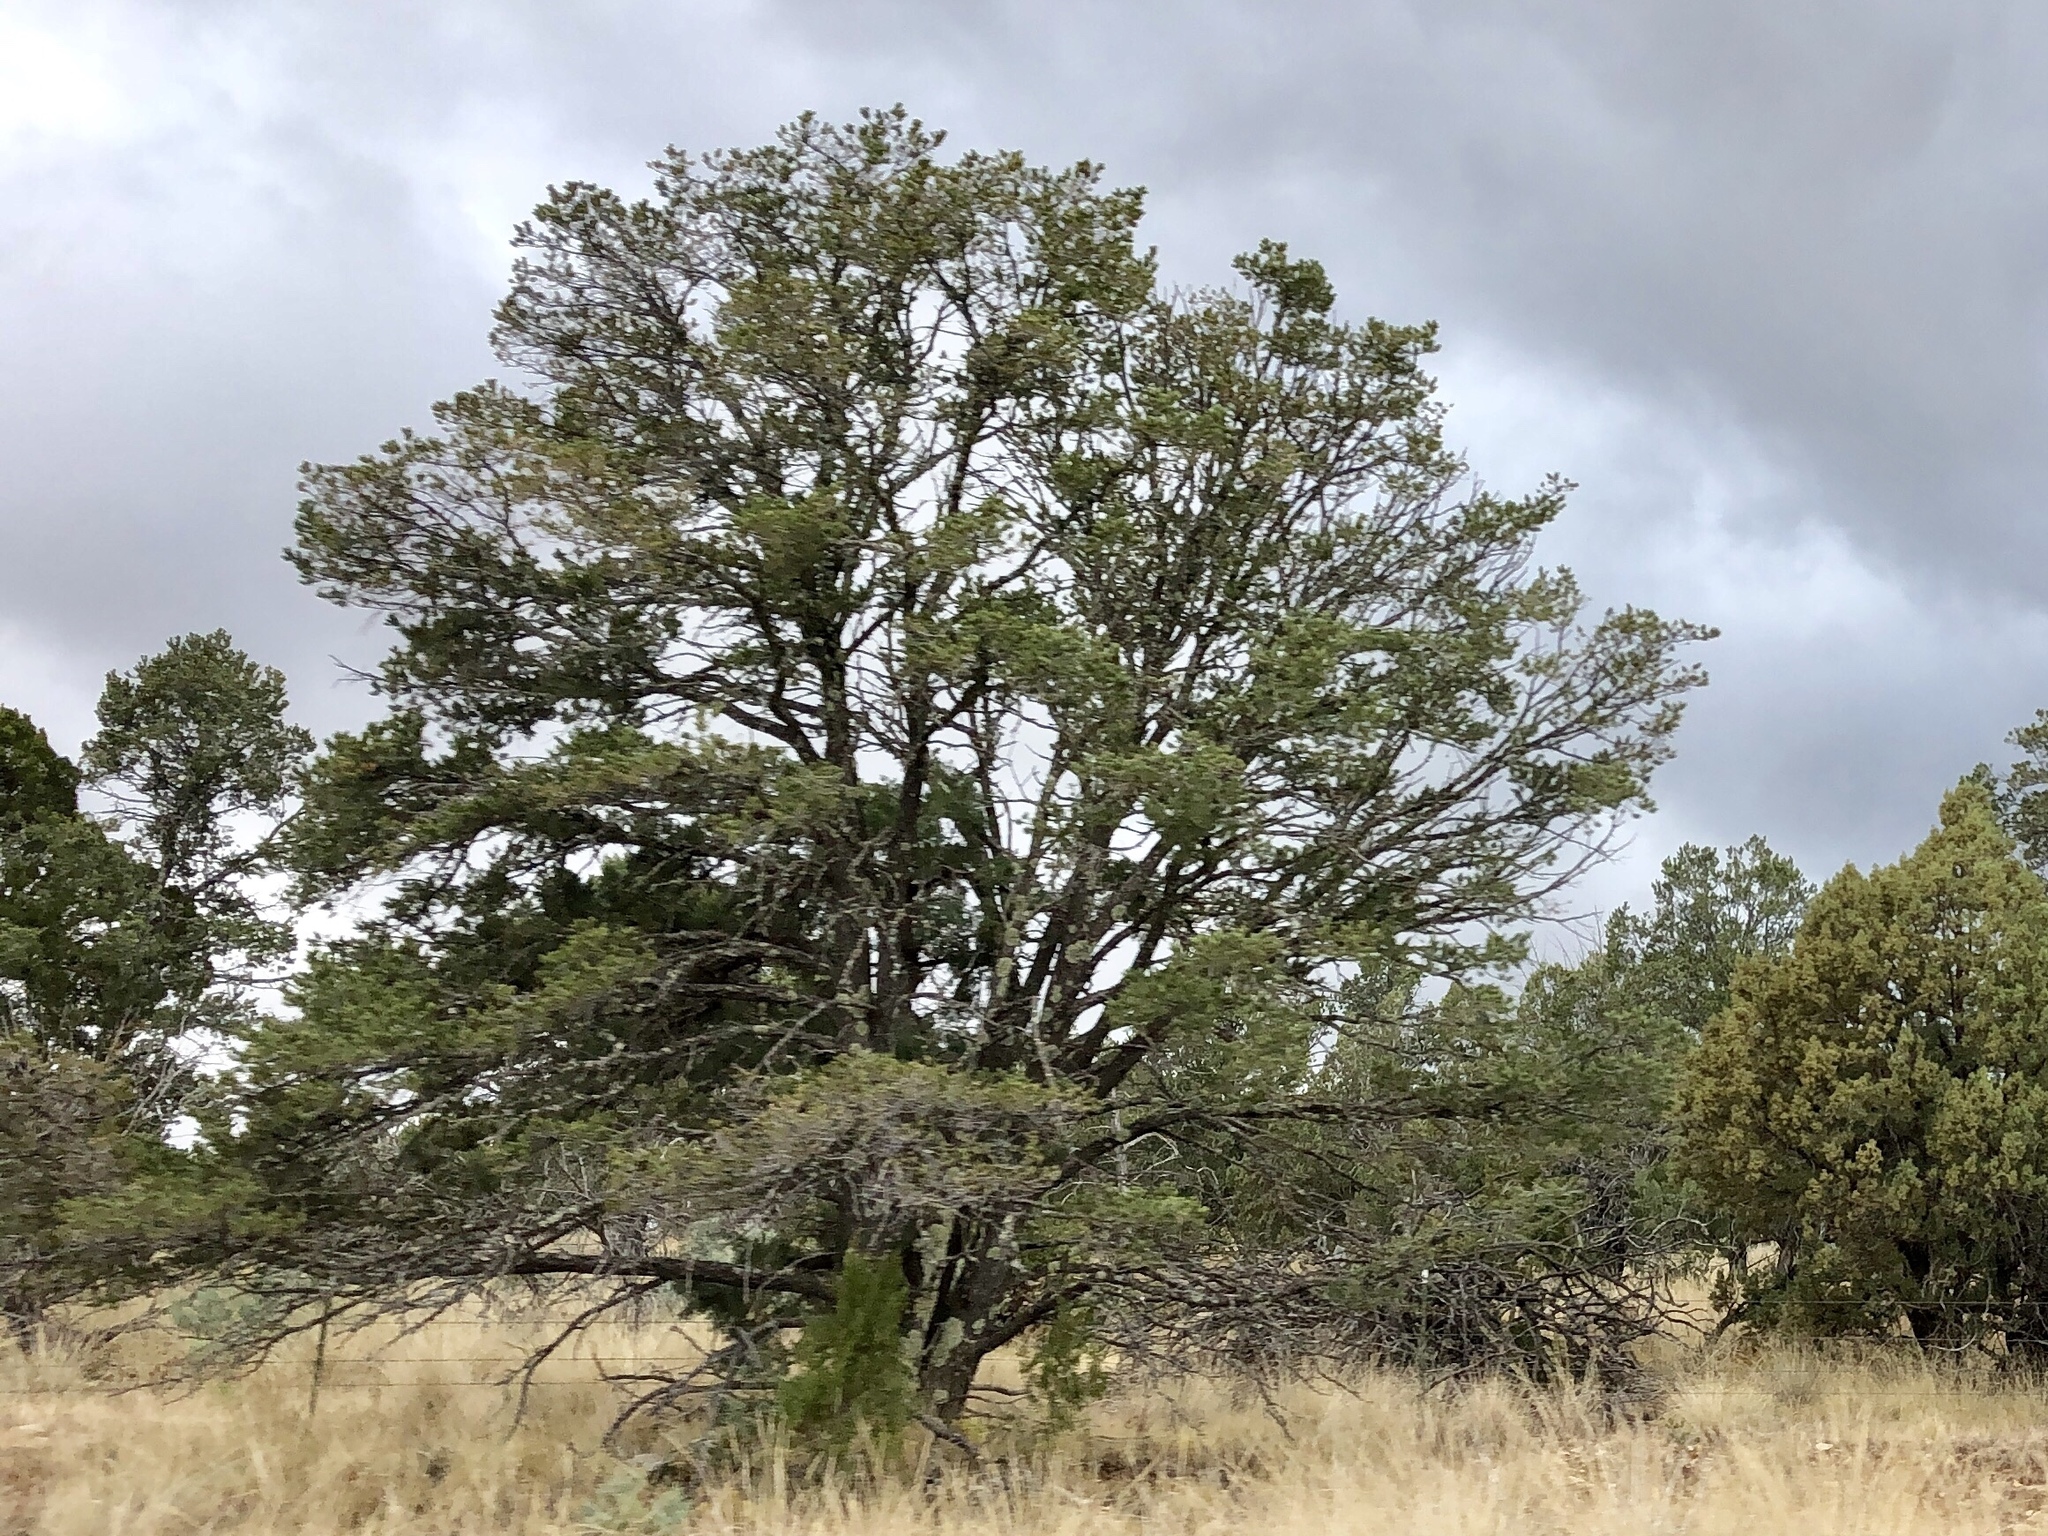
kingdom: Plantae
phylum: Tracheophyta
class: Pinopsida
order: Pinales
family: Cupressaceae
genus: Juniperus
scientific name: Juniperus deppeana
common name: Alligator juniper
